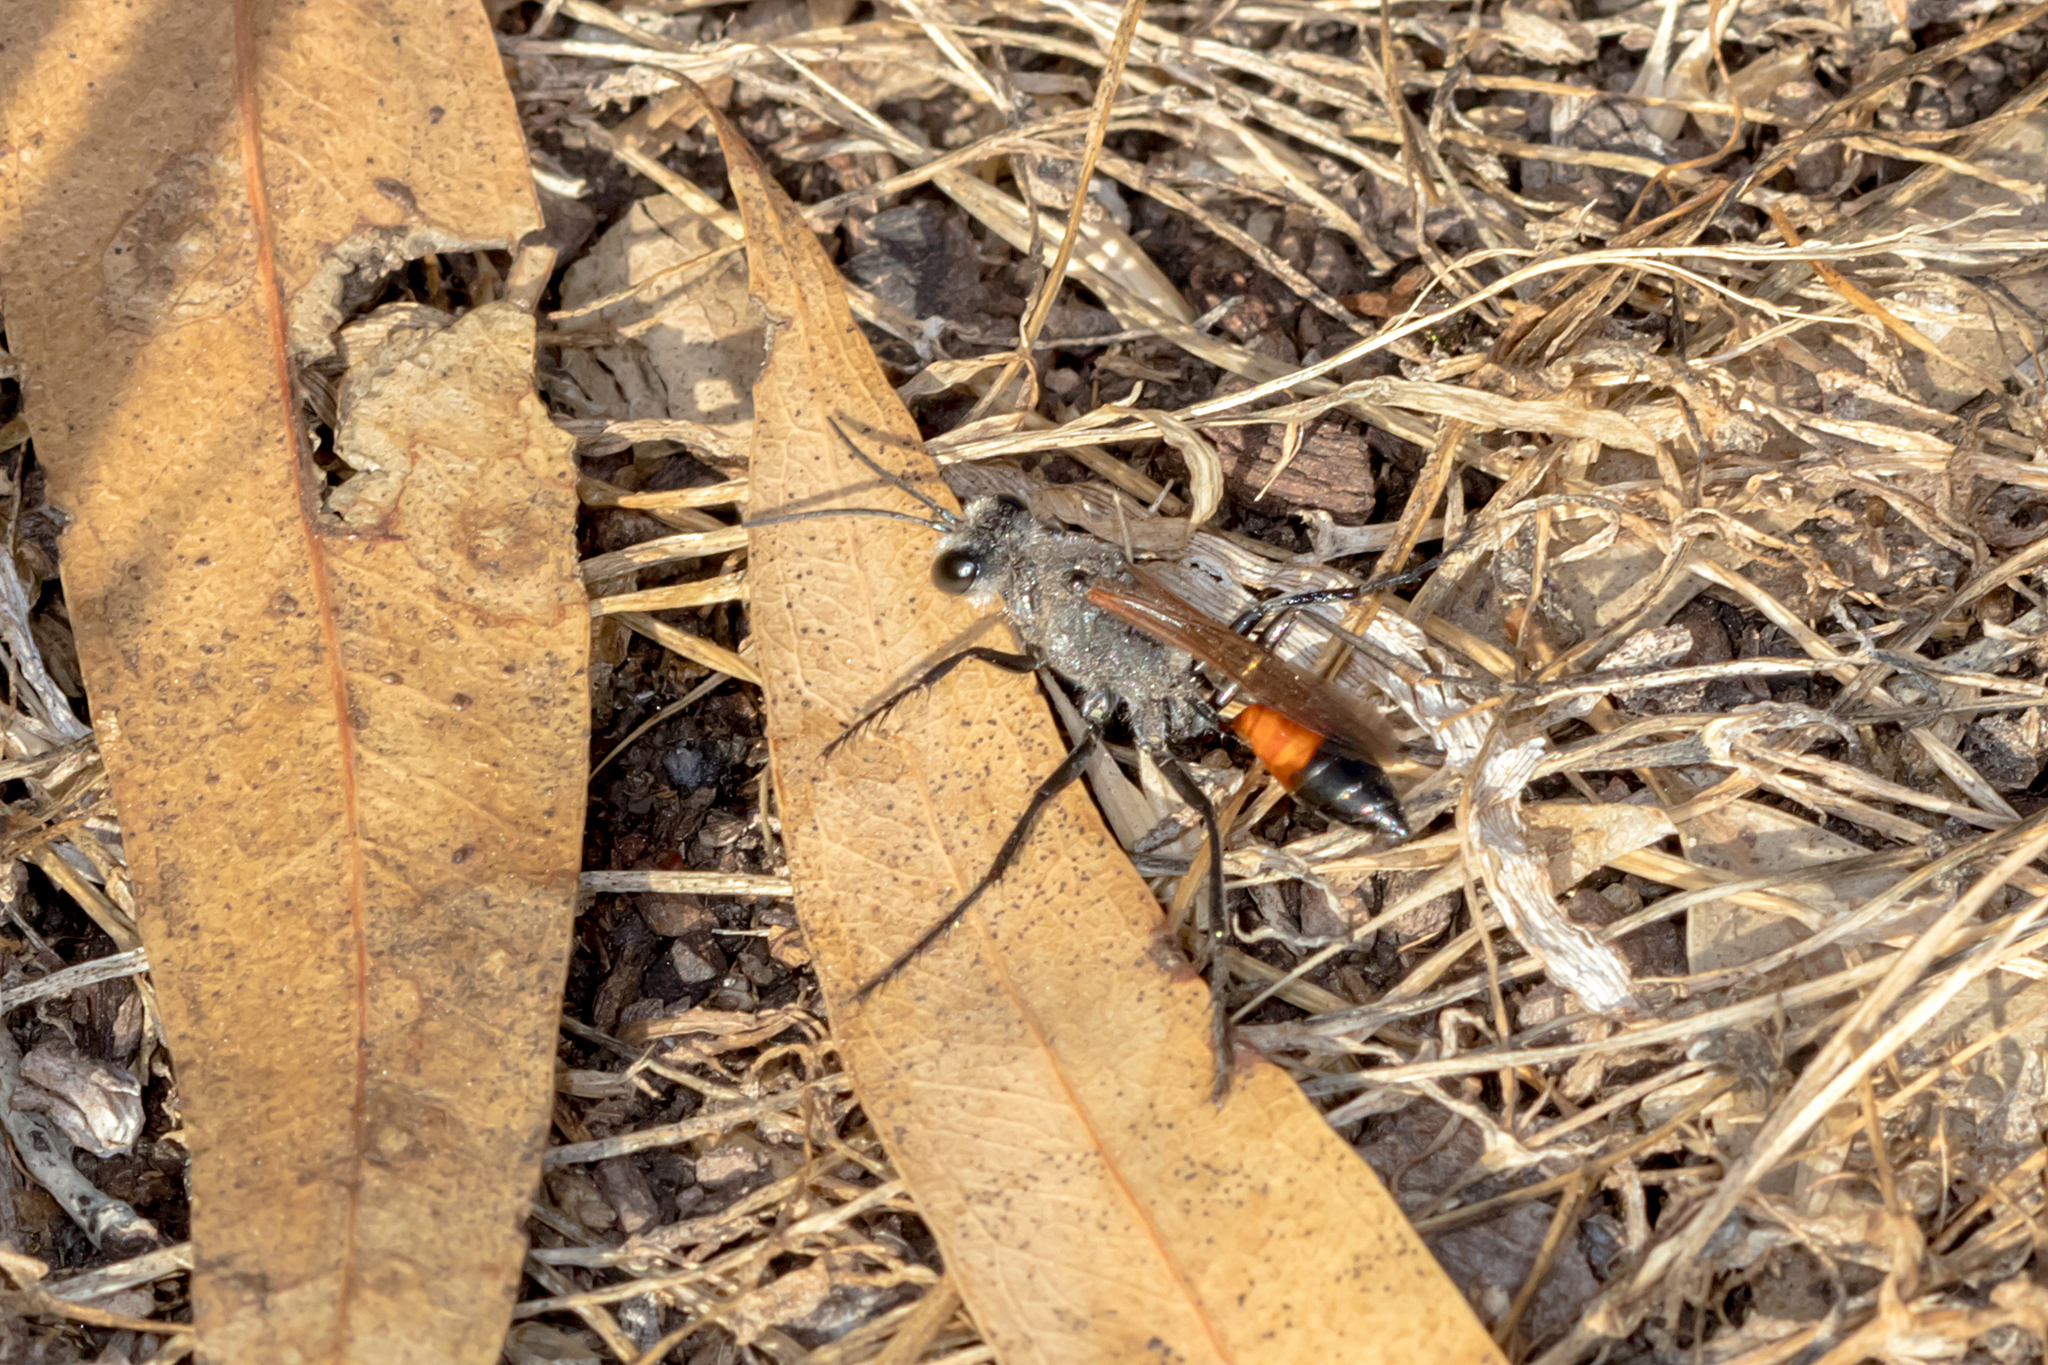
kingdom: Animalia
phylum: Arthropoda
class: Insecta
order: Hymenoptera
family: Sphecidae
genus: Podalonia
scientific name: Podalonia tydei
